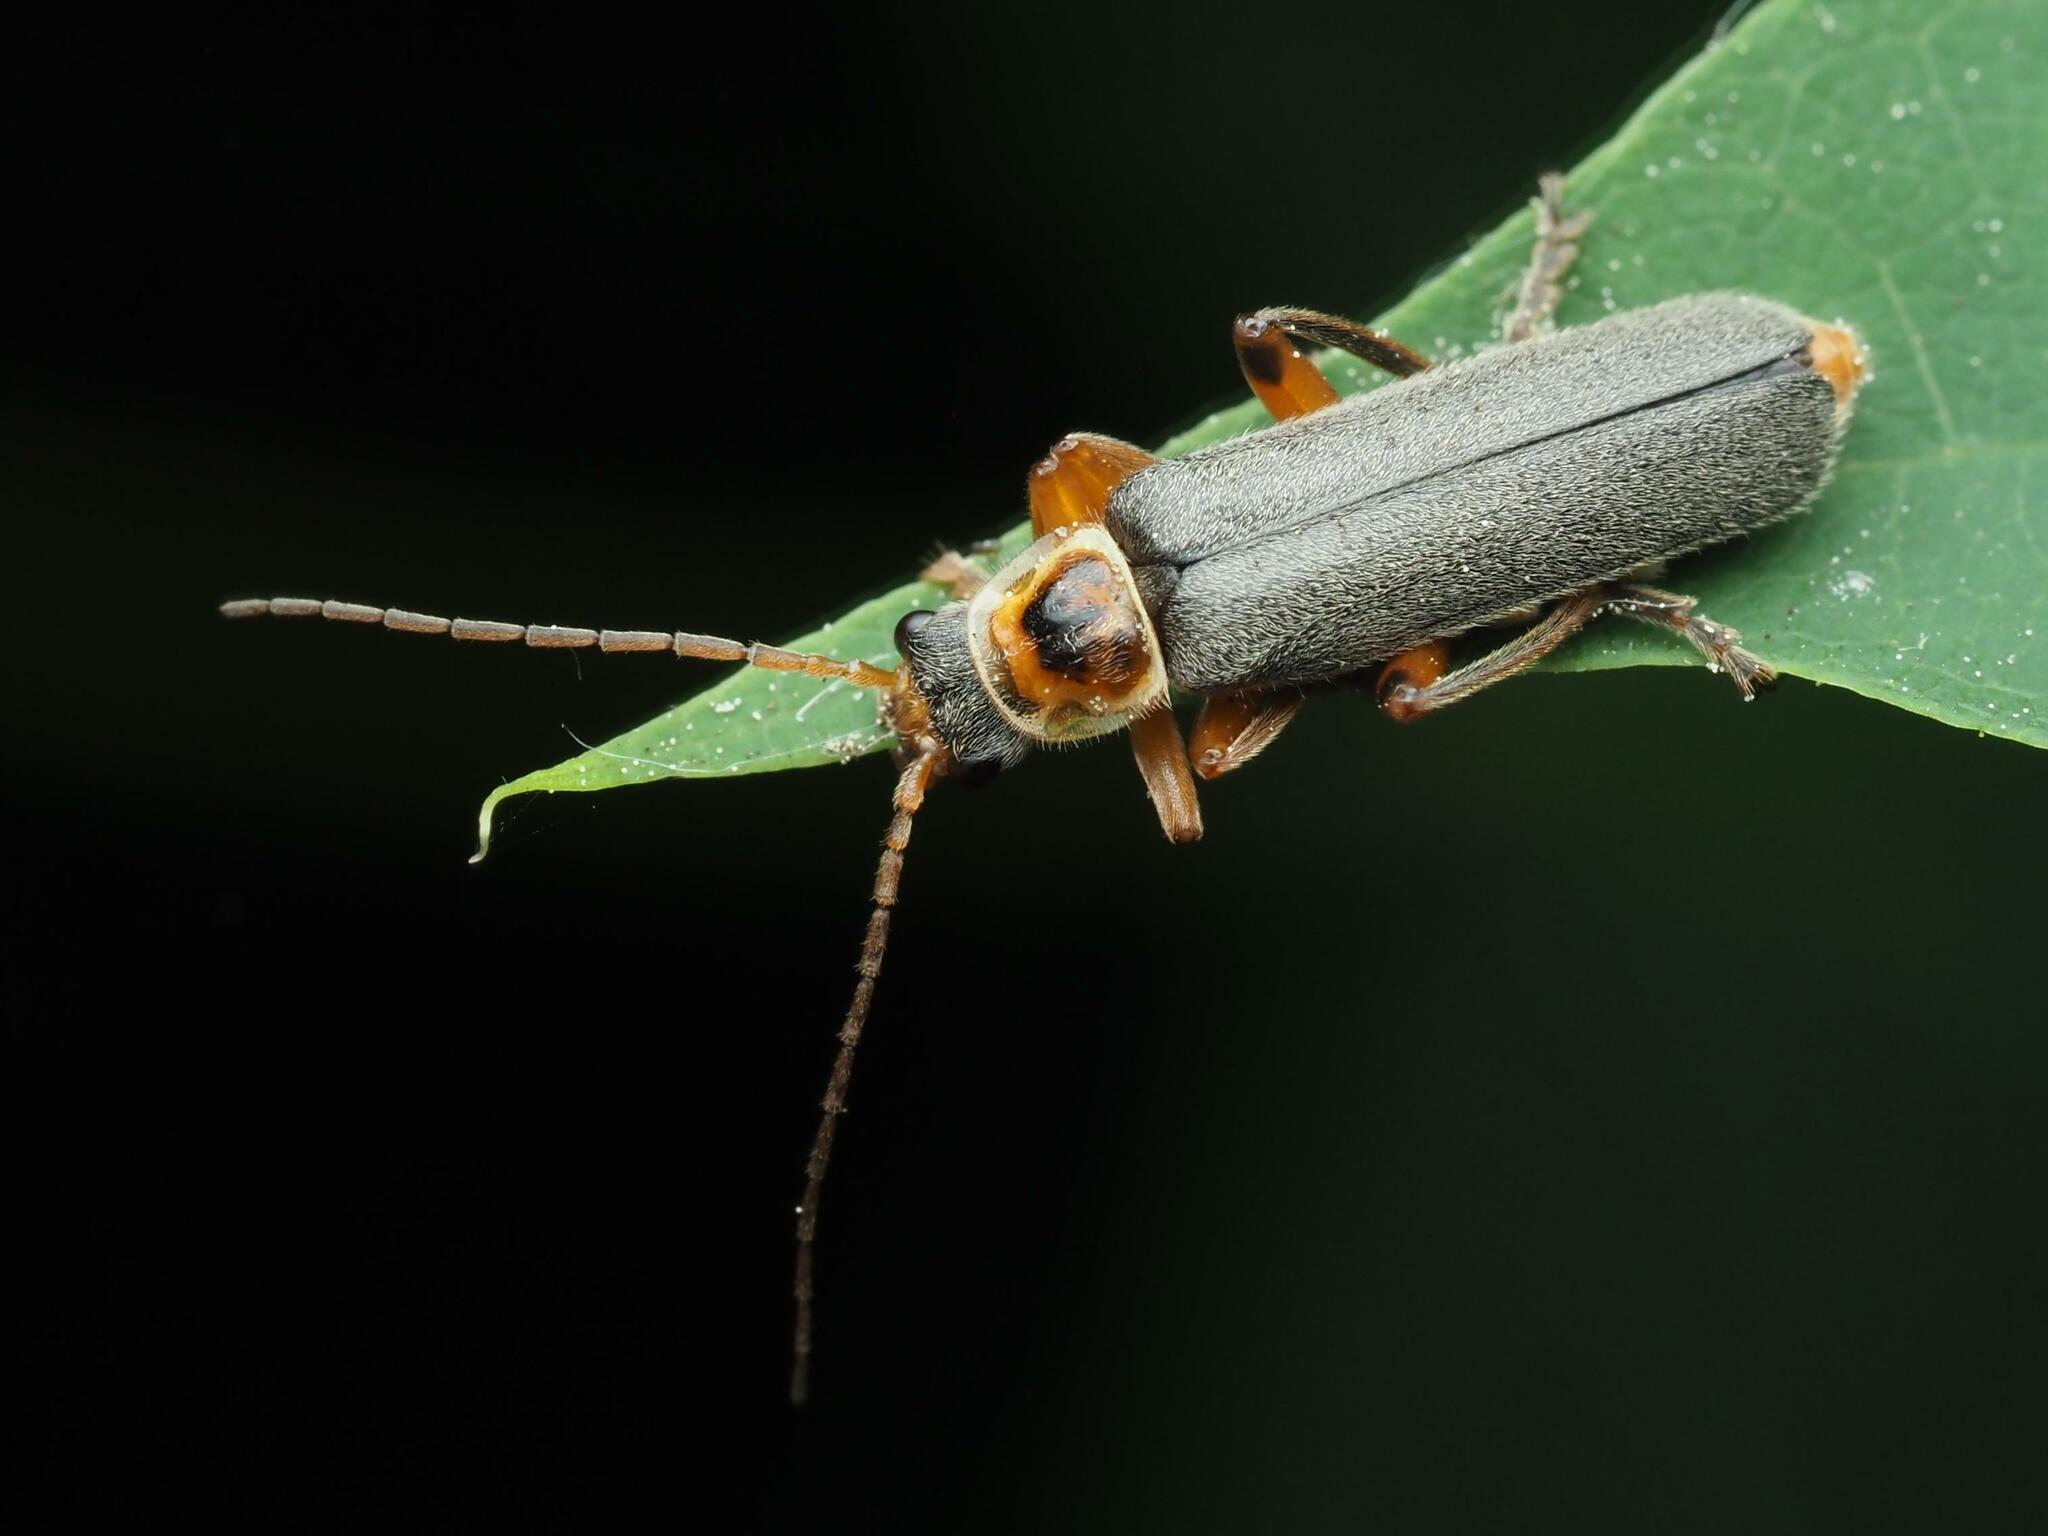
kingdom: Animalia
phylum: Arthropoda
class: Insecta
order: Coleoptera
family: Cantharidae
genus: Cantharis
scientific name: Cantharis nigricans
